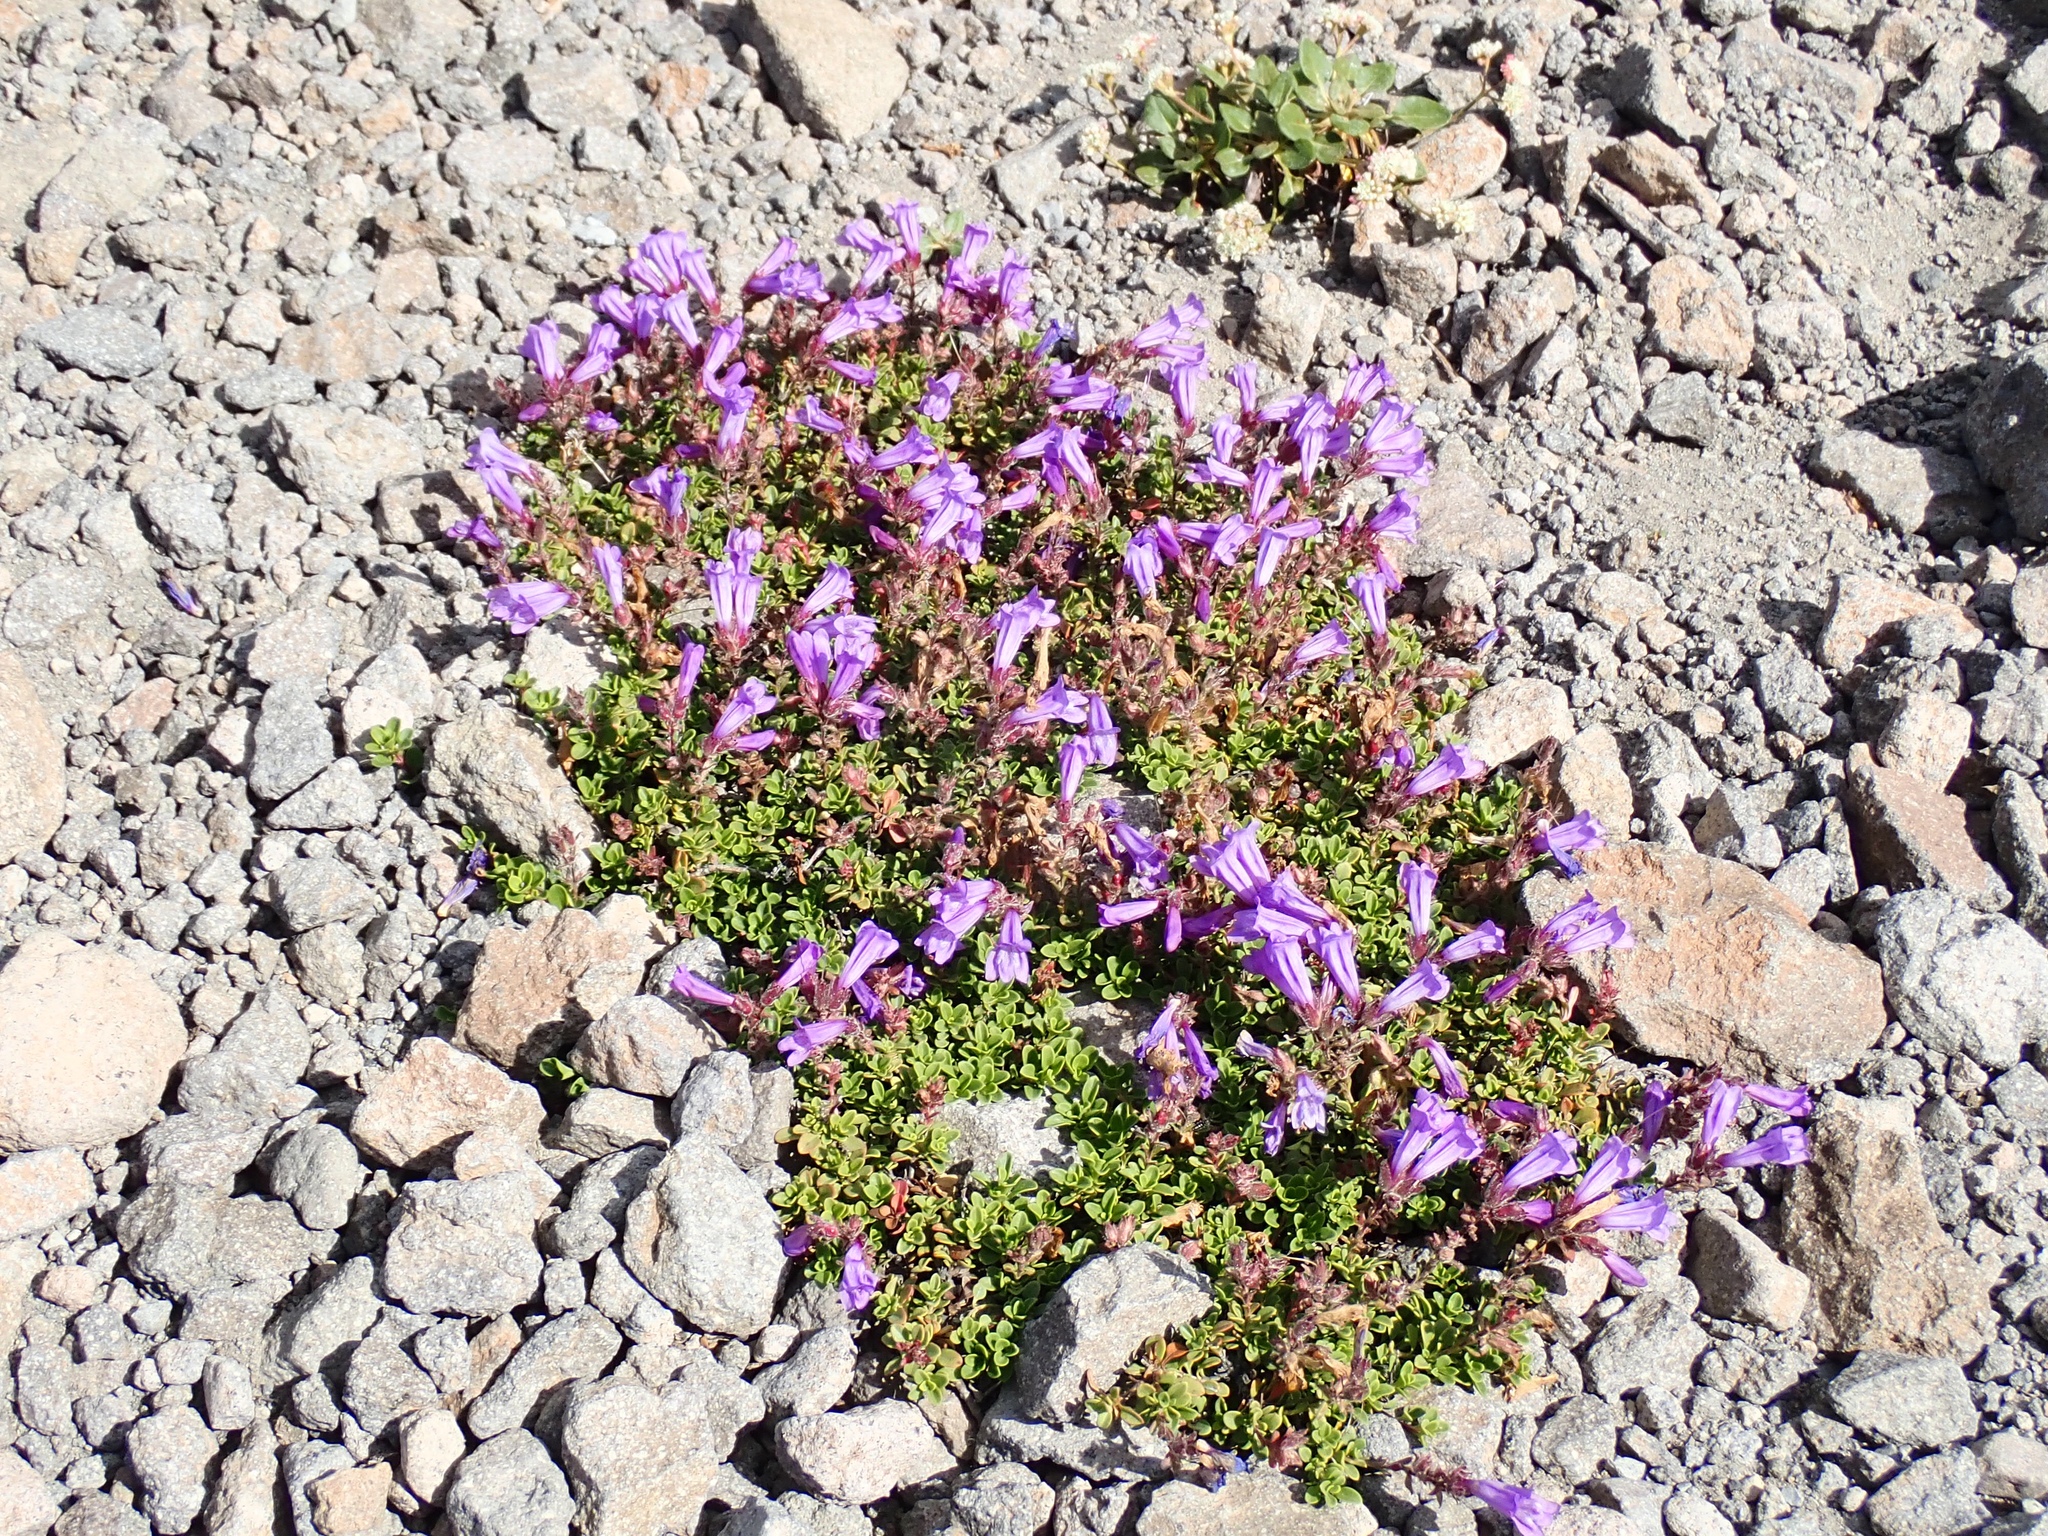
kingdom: Plantae
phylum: Tracheophyta
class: Magnoliopsida
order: Lamiales
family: Plantaginaceae
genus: Penstemon
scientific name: Penstemon davidsonii
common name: Davidson's penstemon
